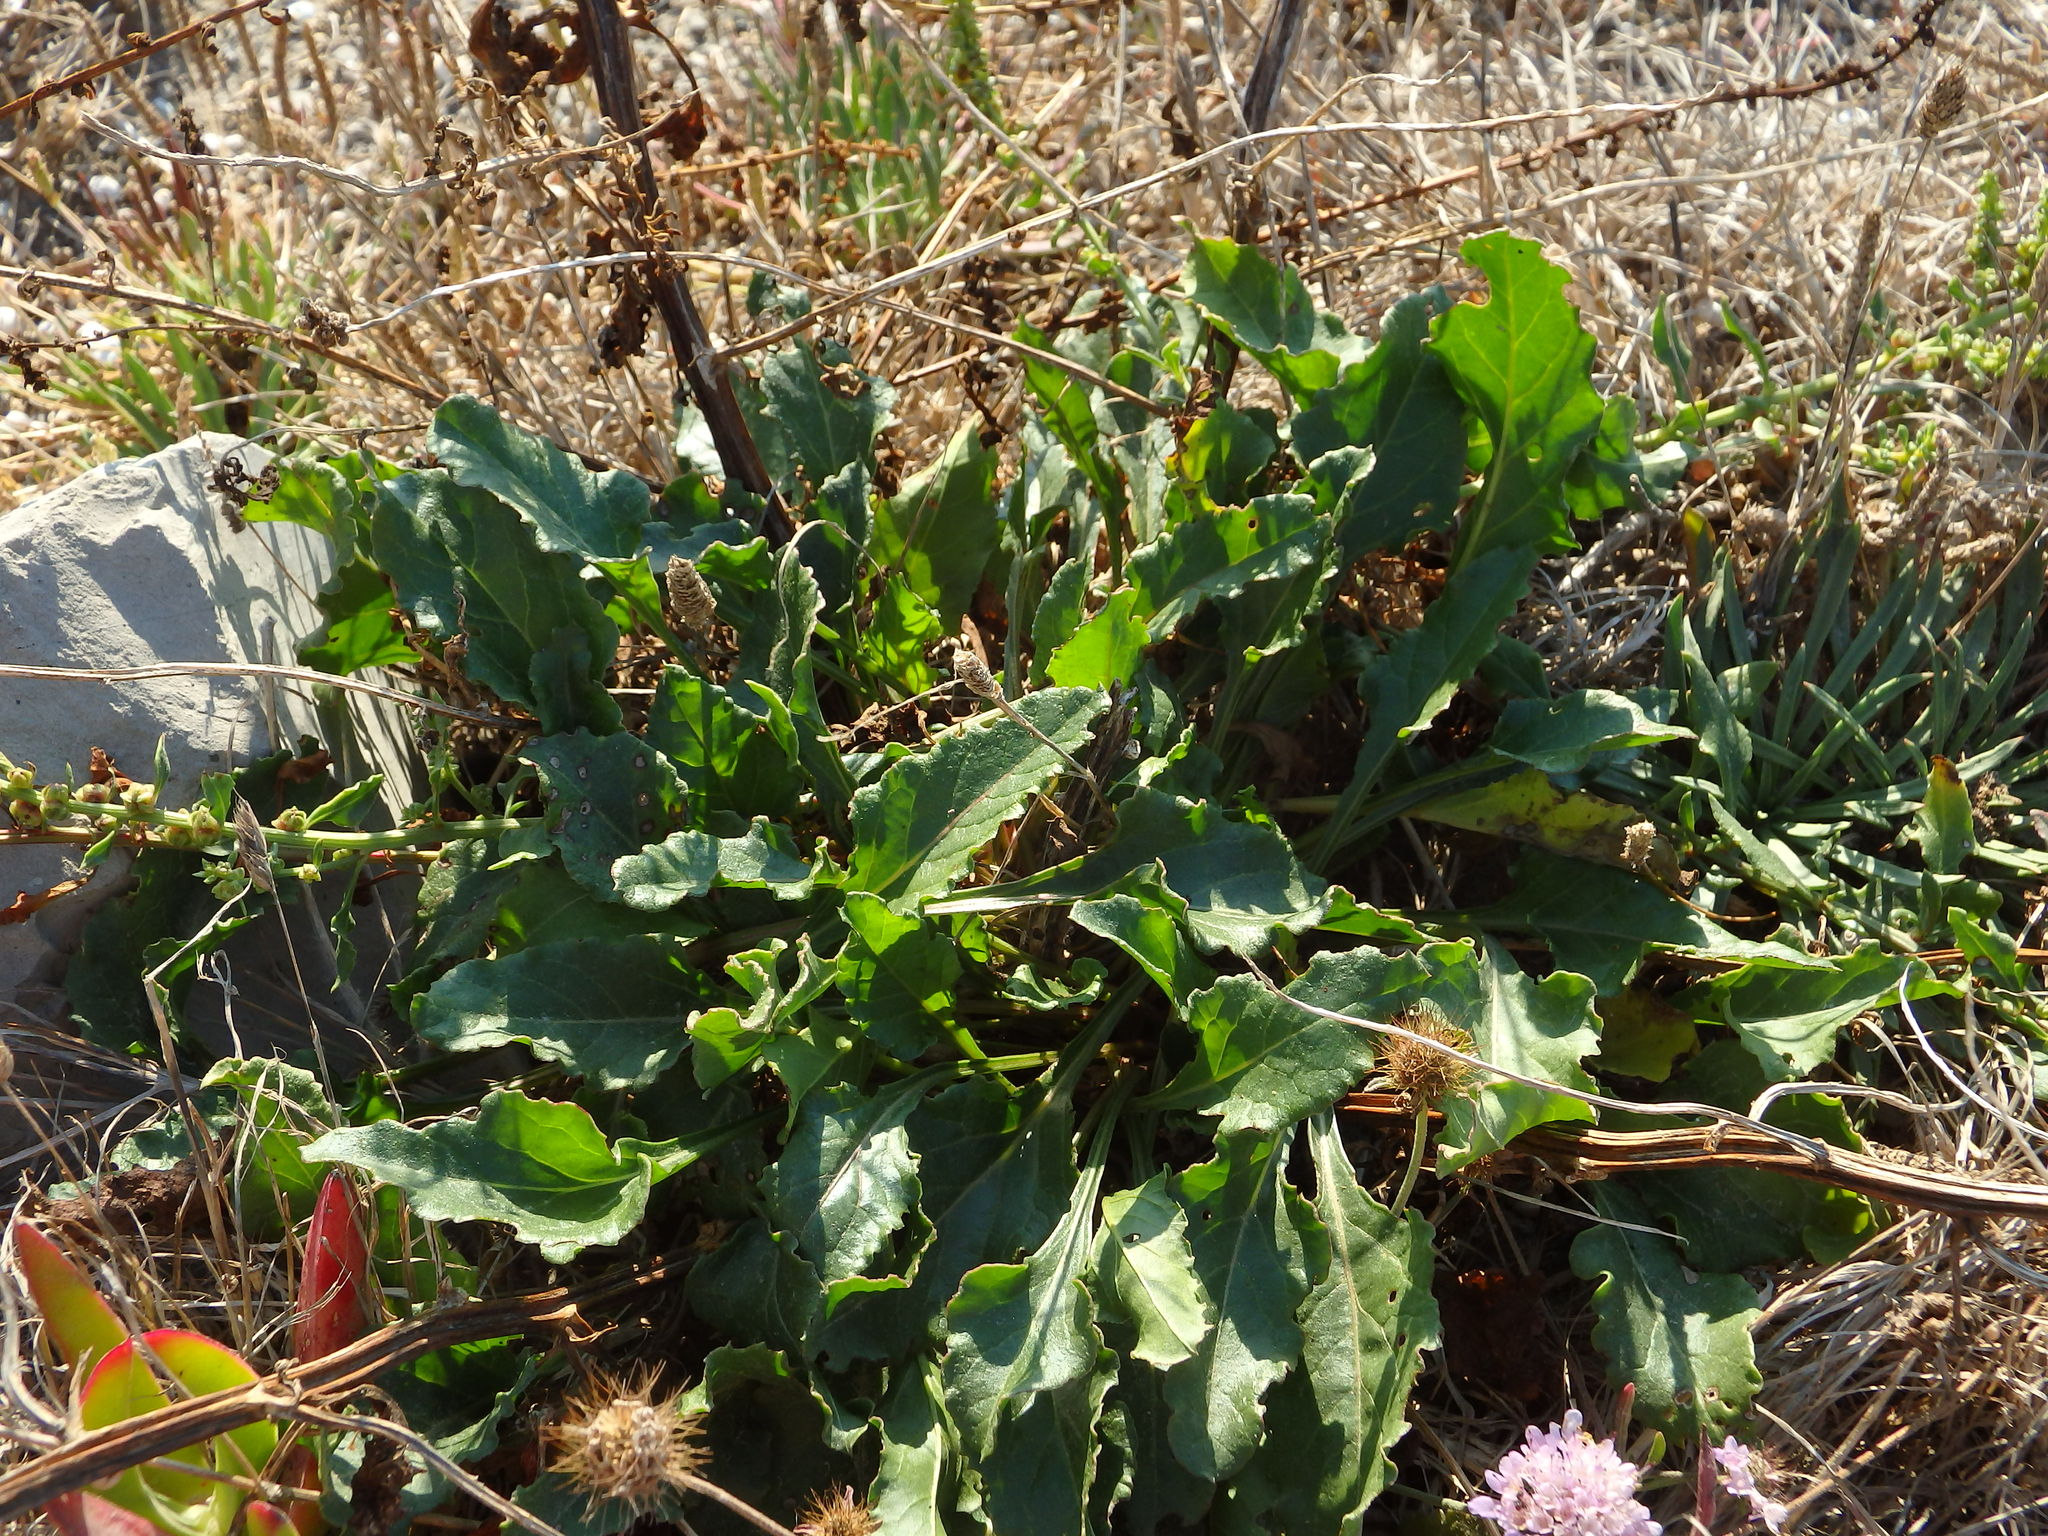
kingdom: Plantae
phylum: Tracheophyta
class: Magnoliopsida
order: Caryophyllales
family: Amaranthaceae
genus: Beta
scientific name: Beta vulgaris
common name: Beet
